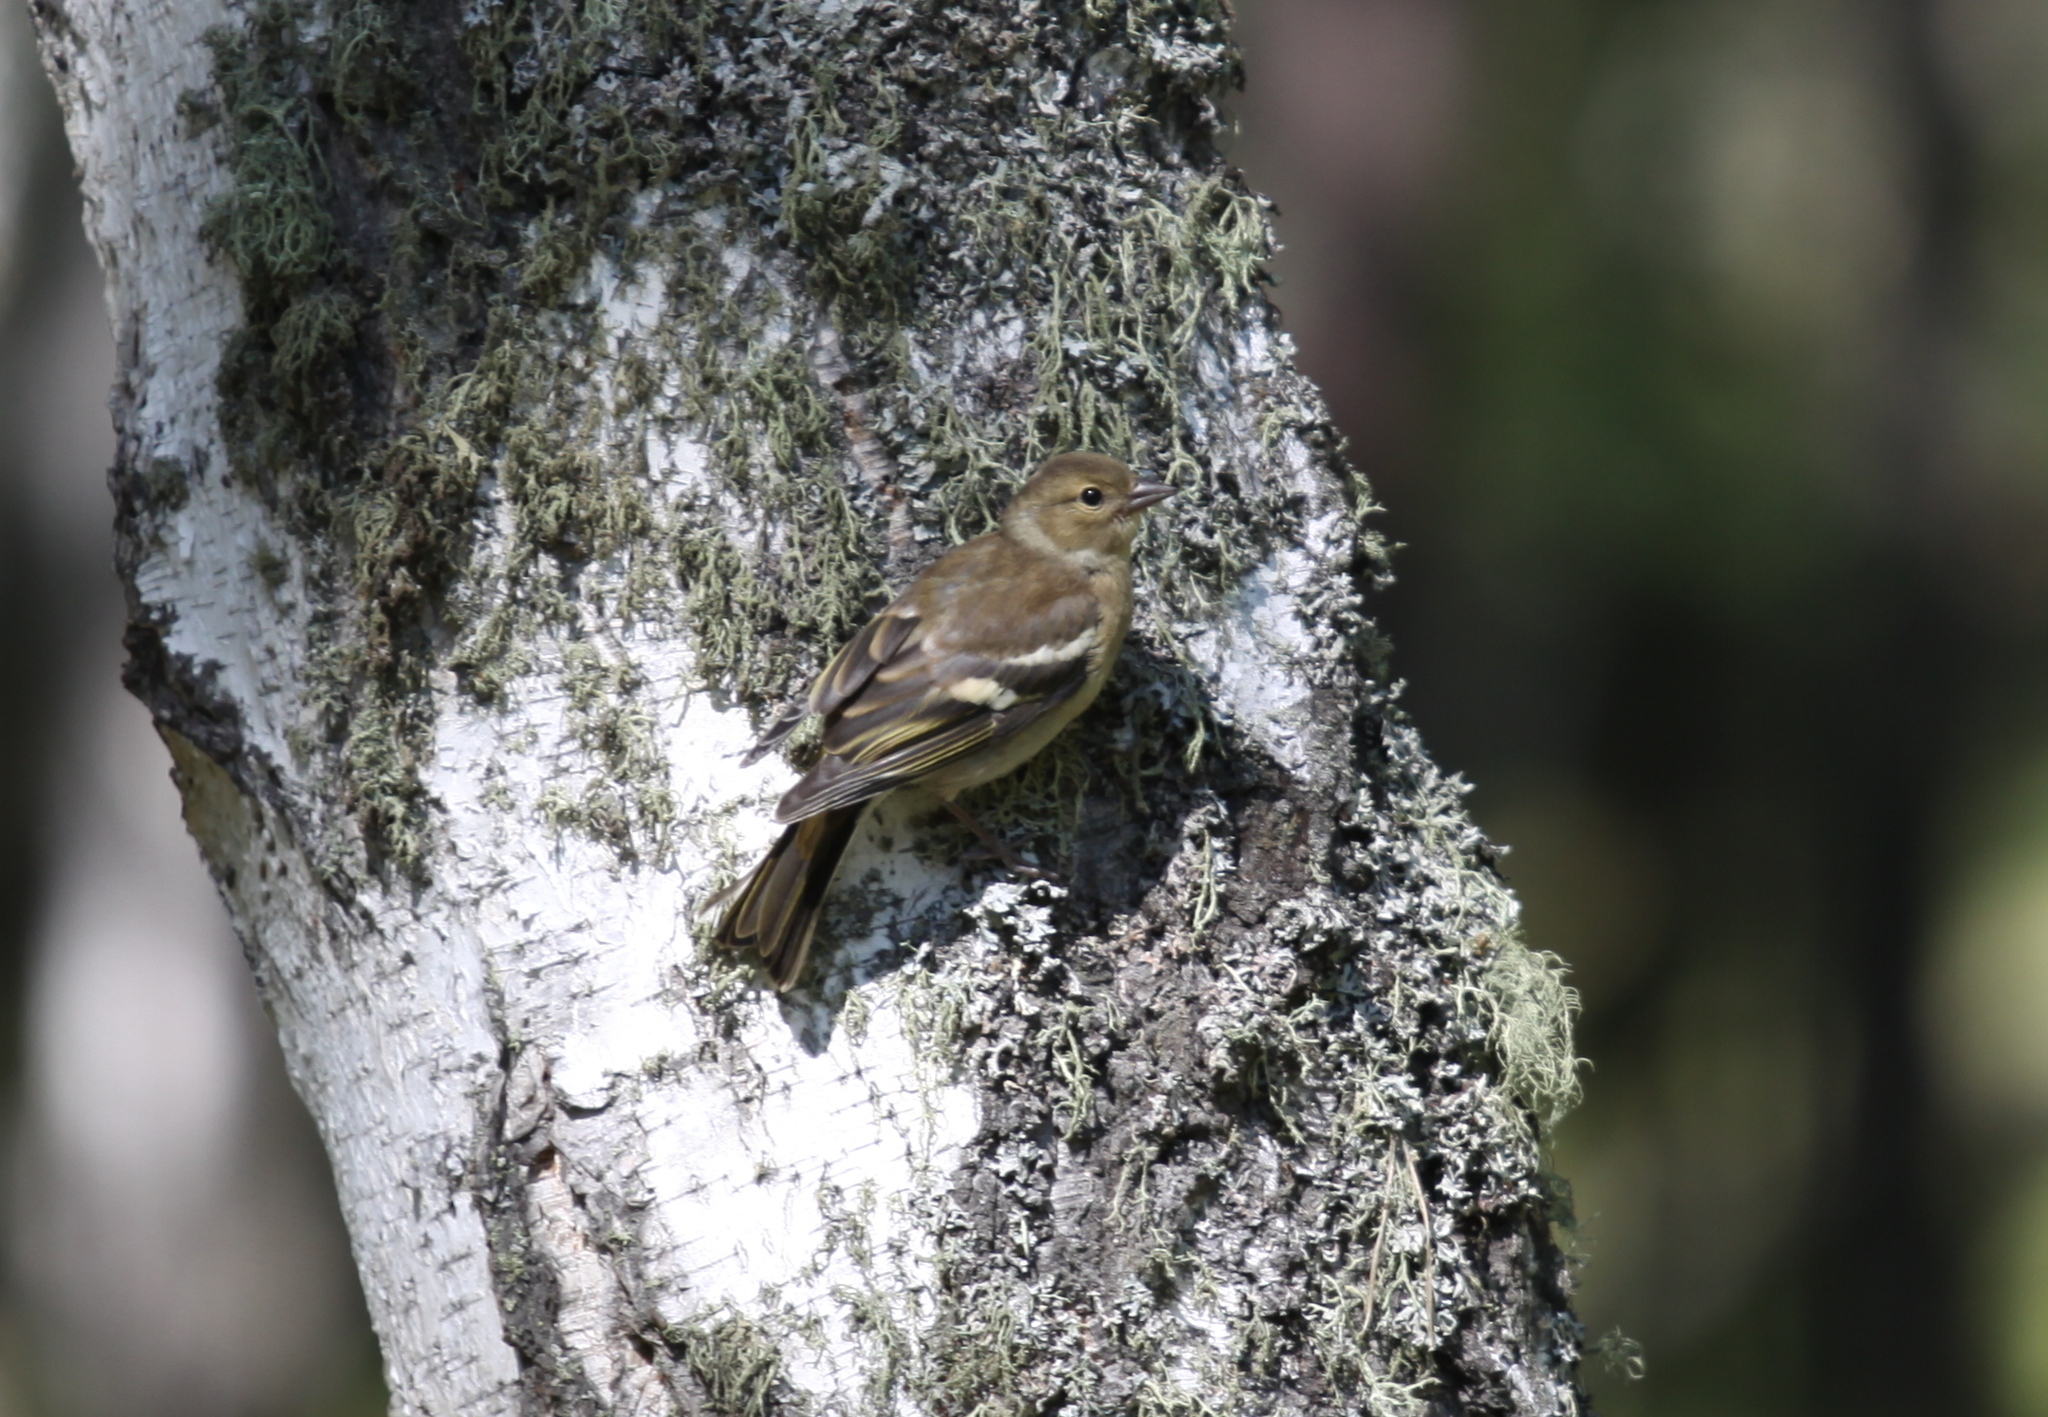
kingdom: Animalia
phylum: Chordata
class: Aves
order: Passeriformes
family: Fringillidae
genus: Fringilla
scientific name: Fringilla coelebs
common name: Common chaffinch
